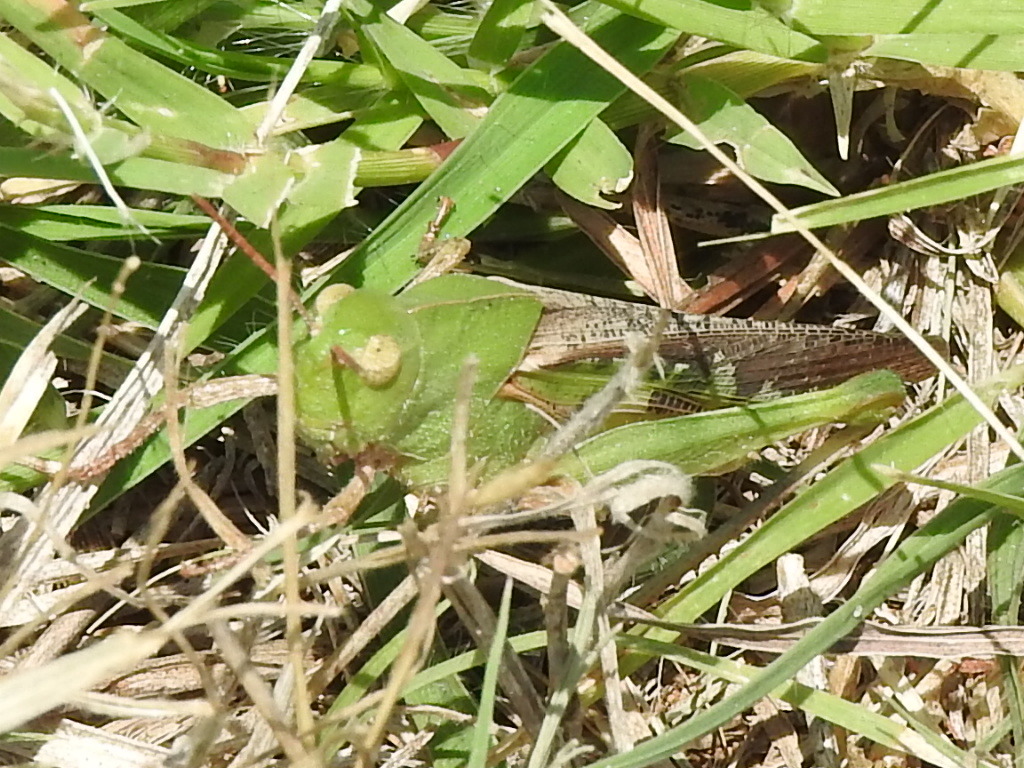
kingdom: Animalia
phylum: Arthropoda
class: Insecta
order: Orthoptera
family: Acrididae
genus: Chortophaga
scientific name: Chortophaga viridifasciata
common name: Green-striped grasshopper
